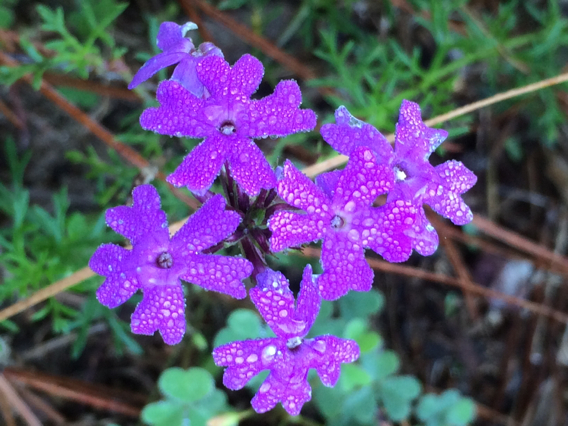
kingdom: Plantae
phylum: Tracheophyta
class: Magnoliopsida
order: Lamiales
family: Verbenaceae
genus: Verbena
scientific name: Verbena bipinnatifida
